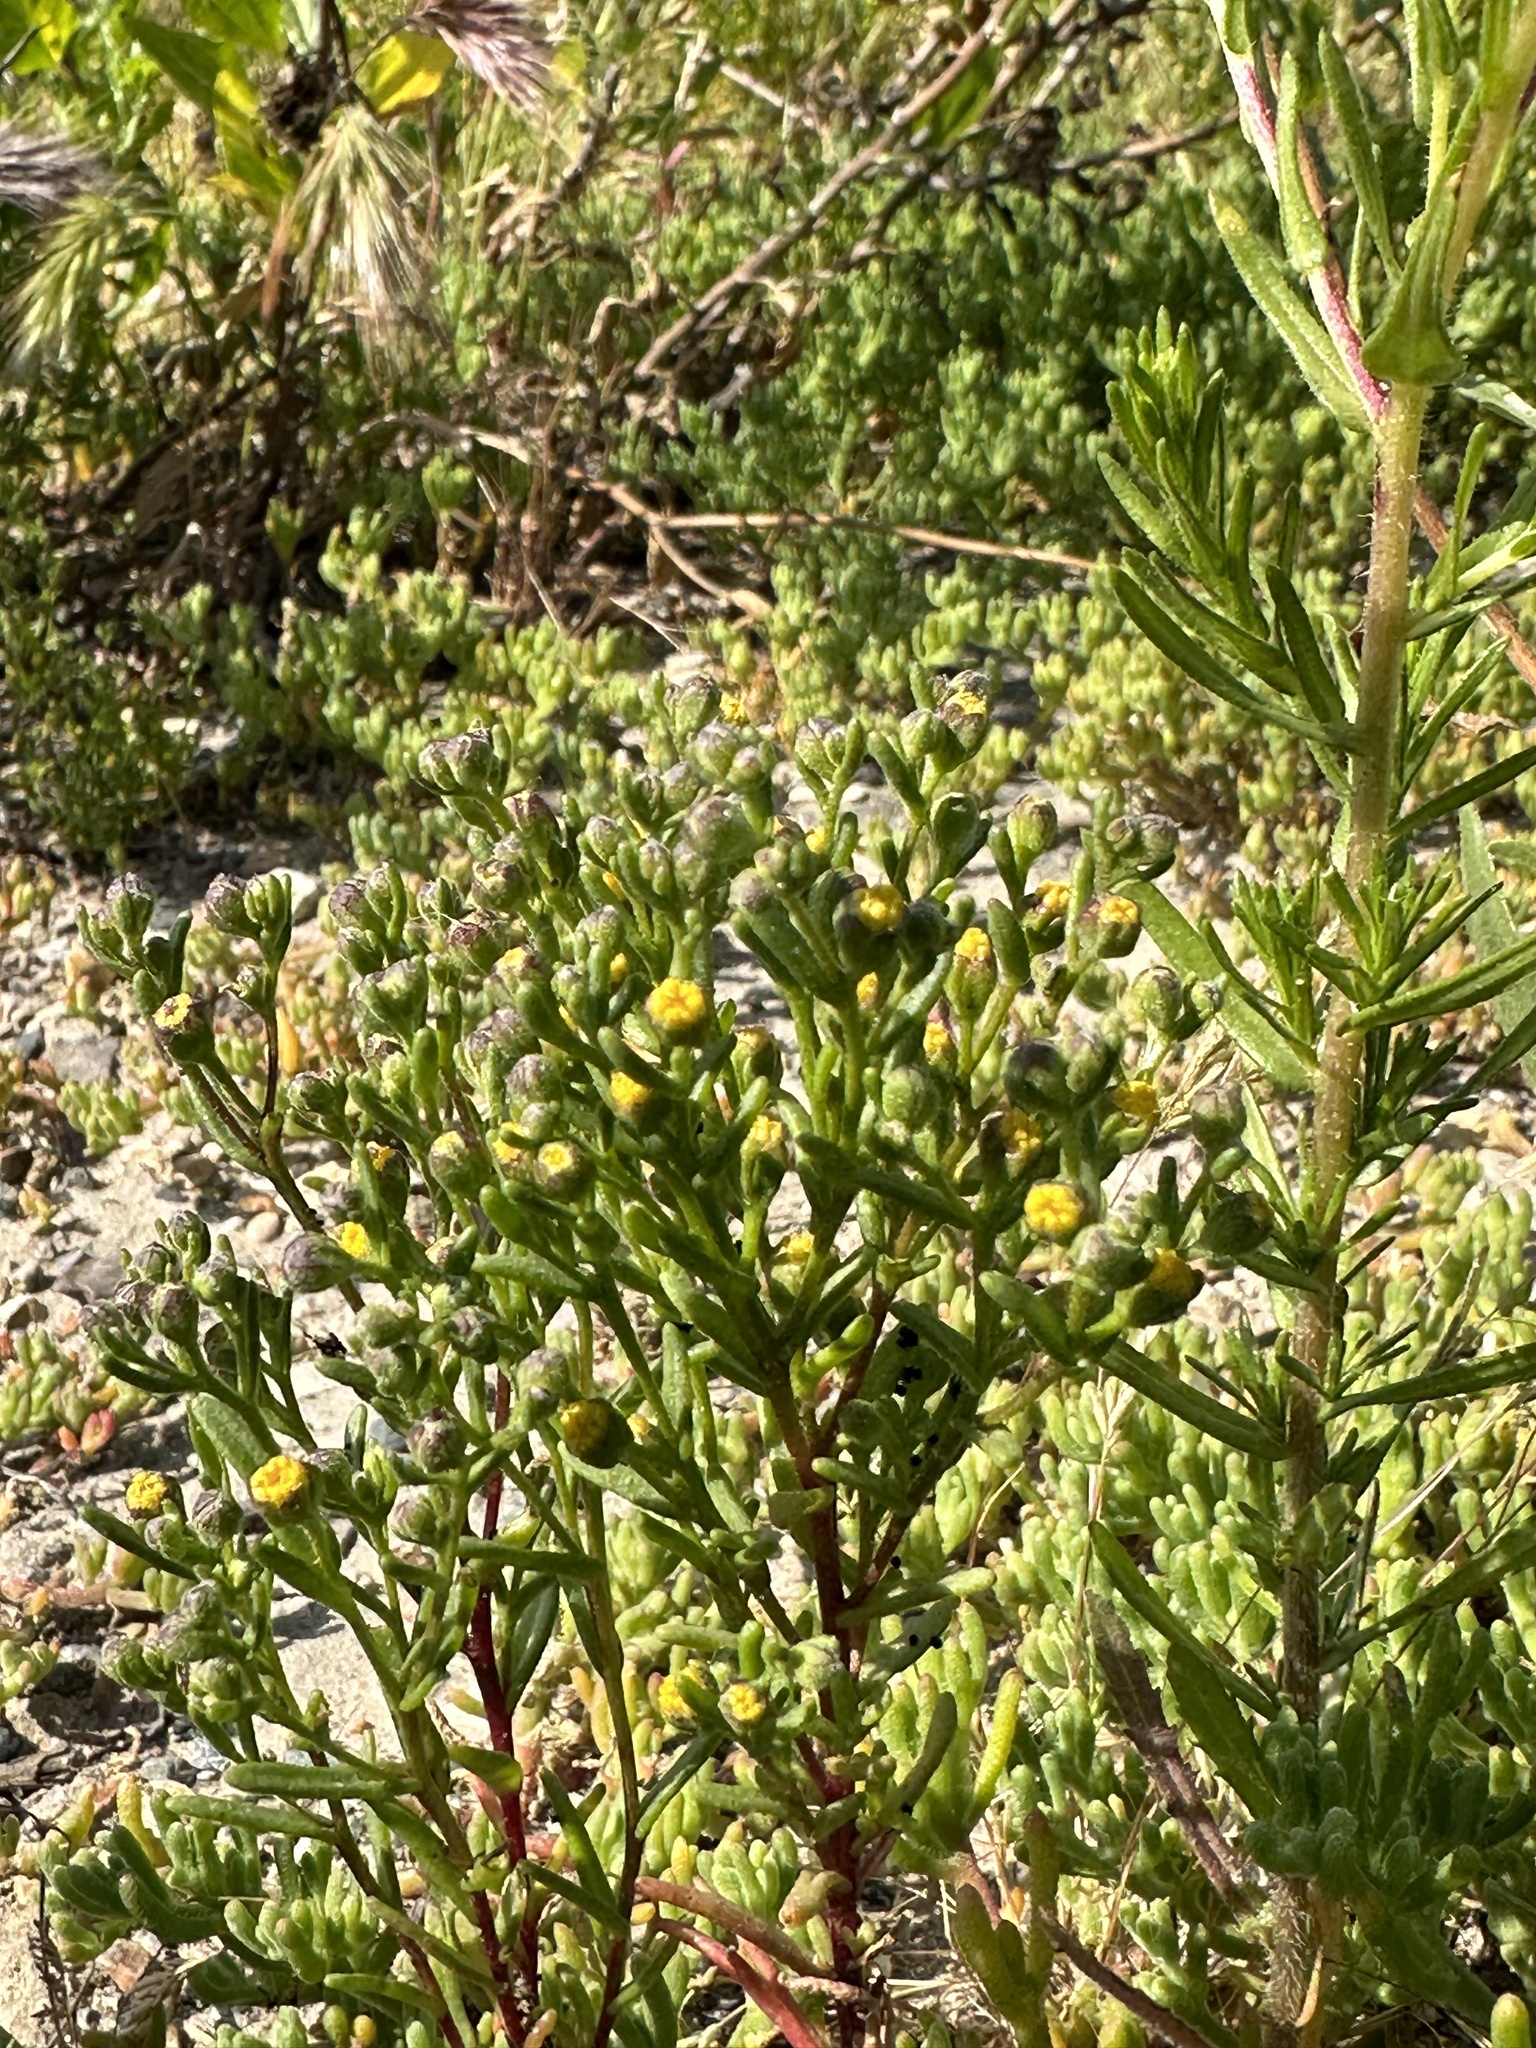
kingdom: Plantae
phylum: Tracheophyta
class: Magnoliopsida
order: Asterales
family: Asteraceae
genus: Amblyopappus
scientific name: Amblyopappus pusillus
